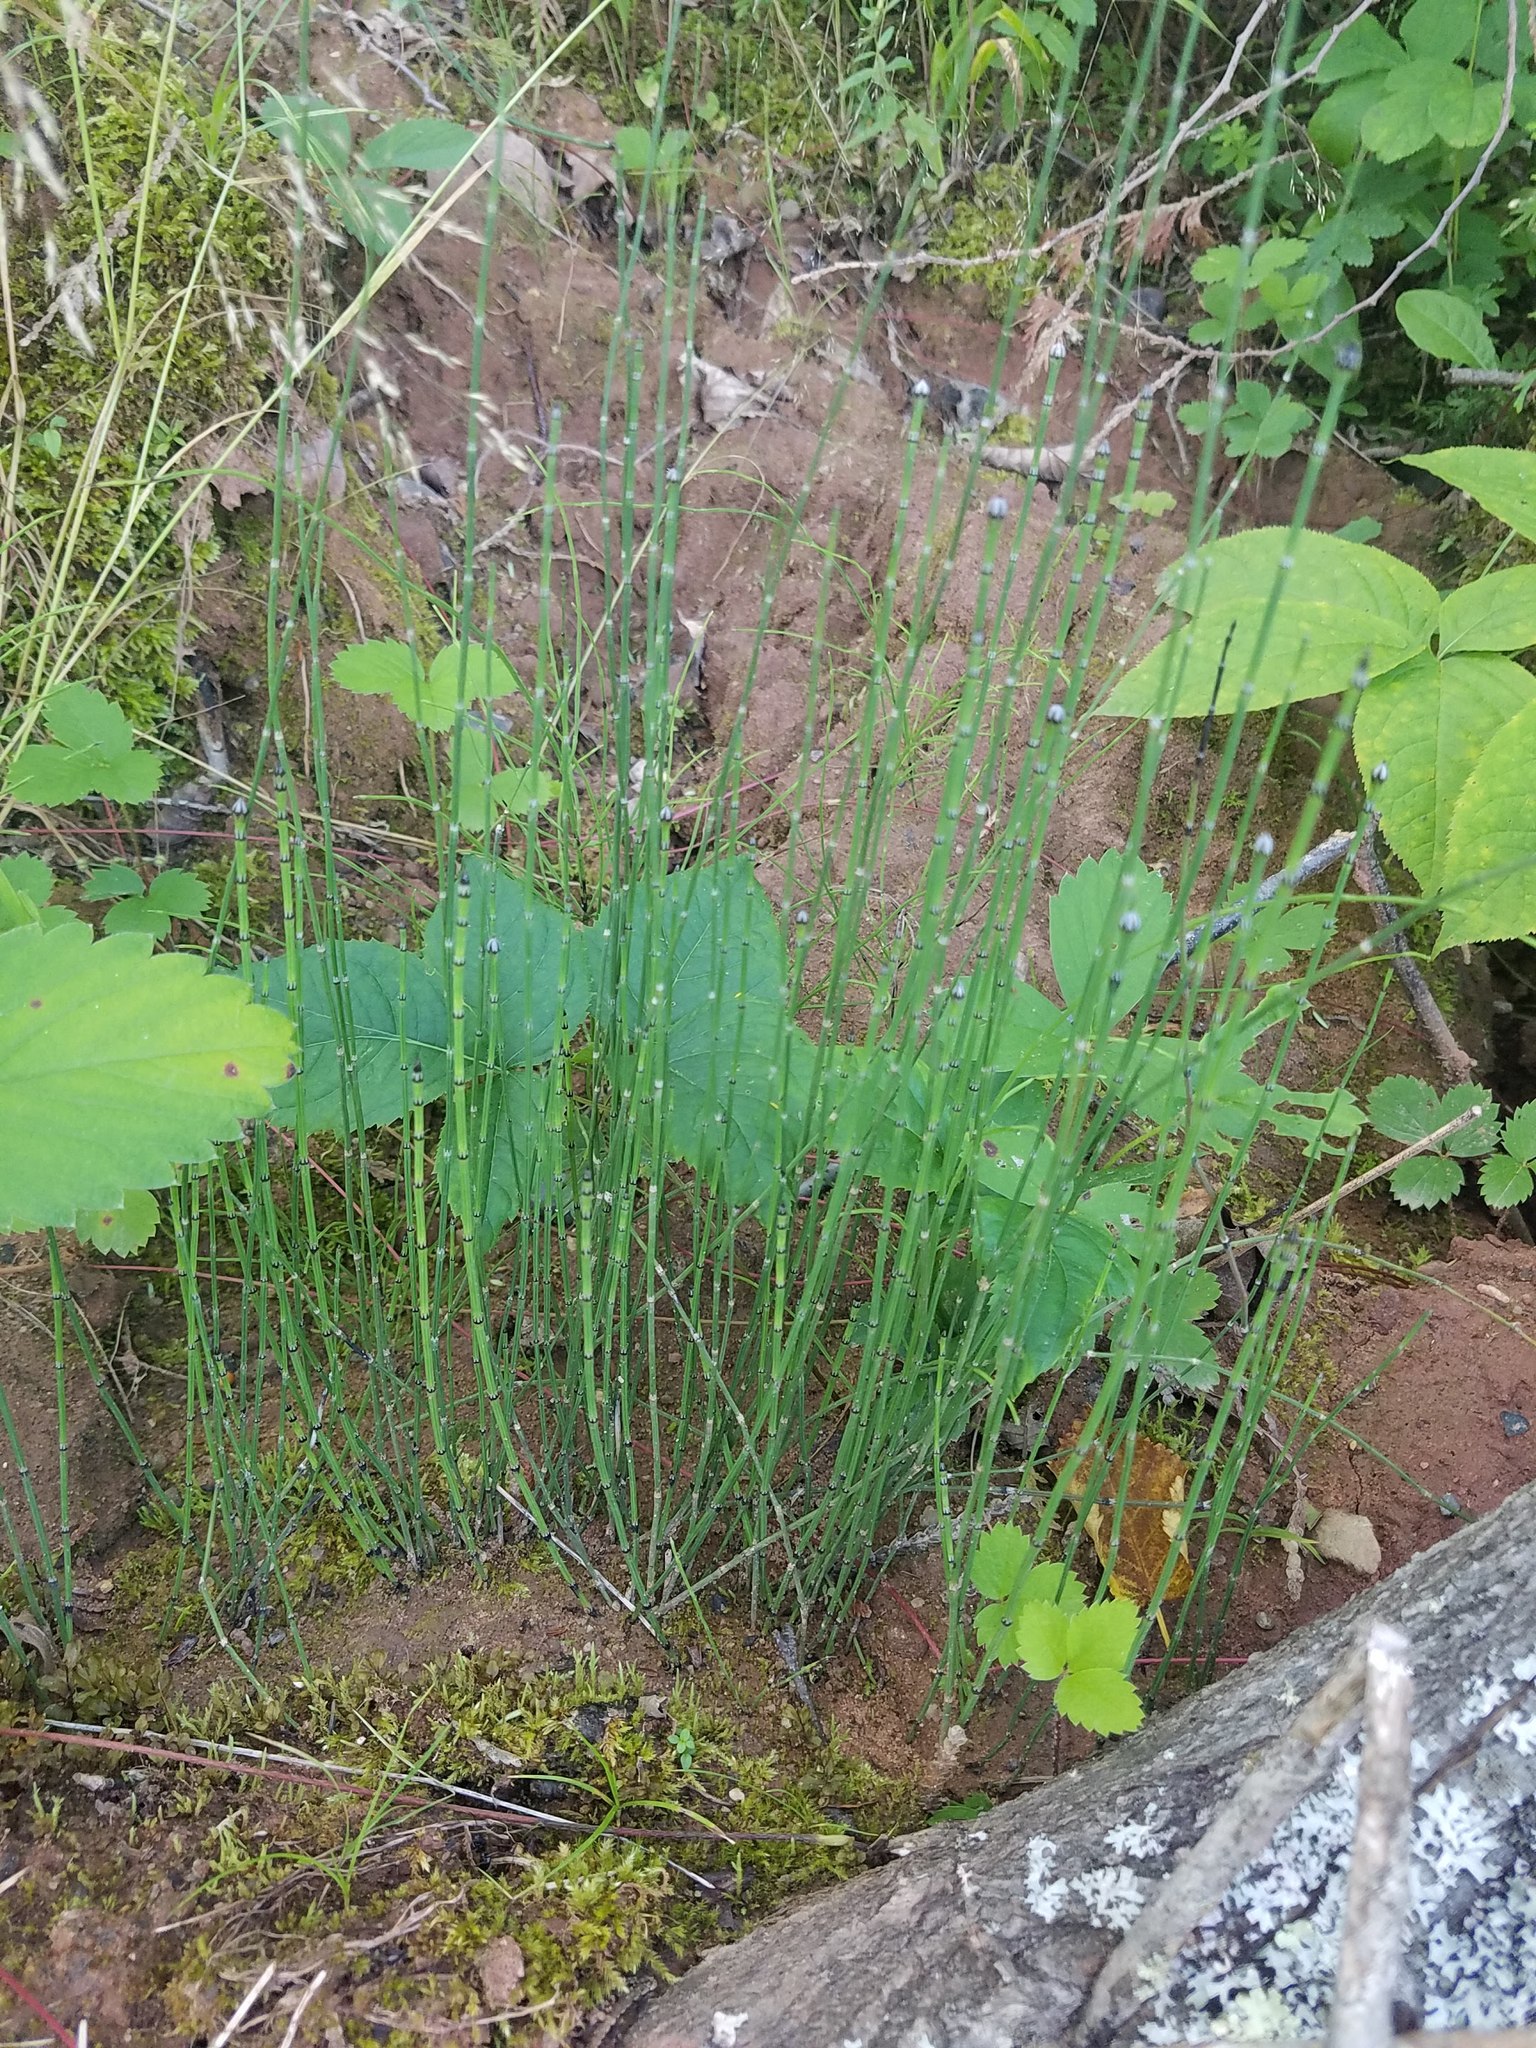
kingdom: Plantae
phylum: Tracheophyta
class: Polypodiopsida
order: Equisetales
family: Equisetaceae
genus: Equisetum
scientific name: Equisetum variegatum
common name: Variegated horsetail
